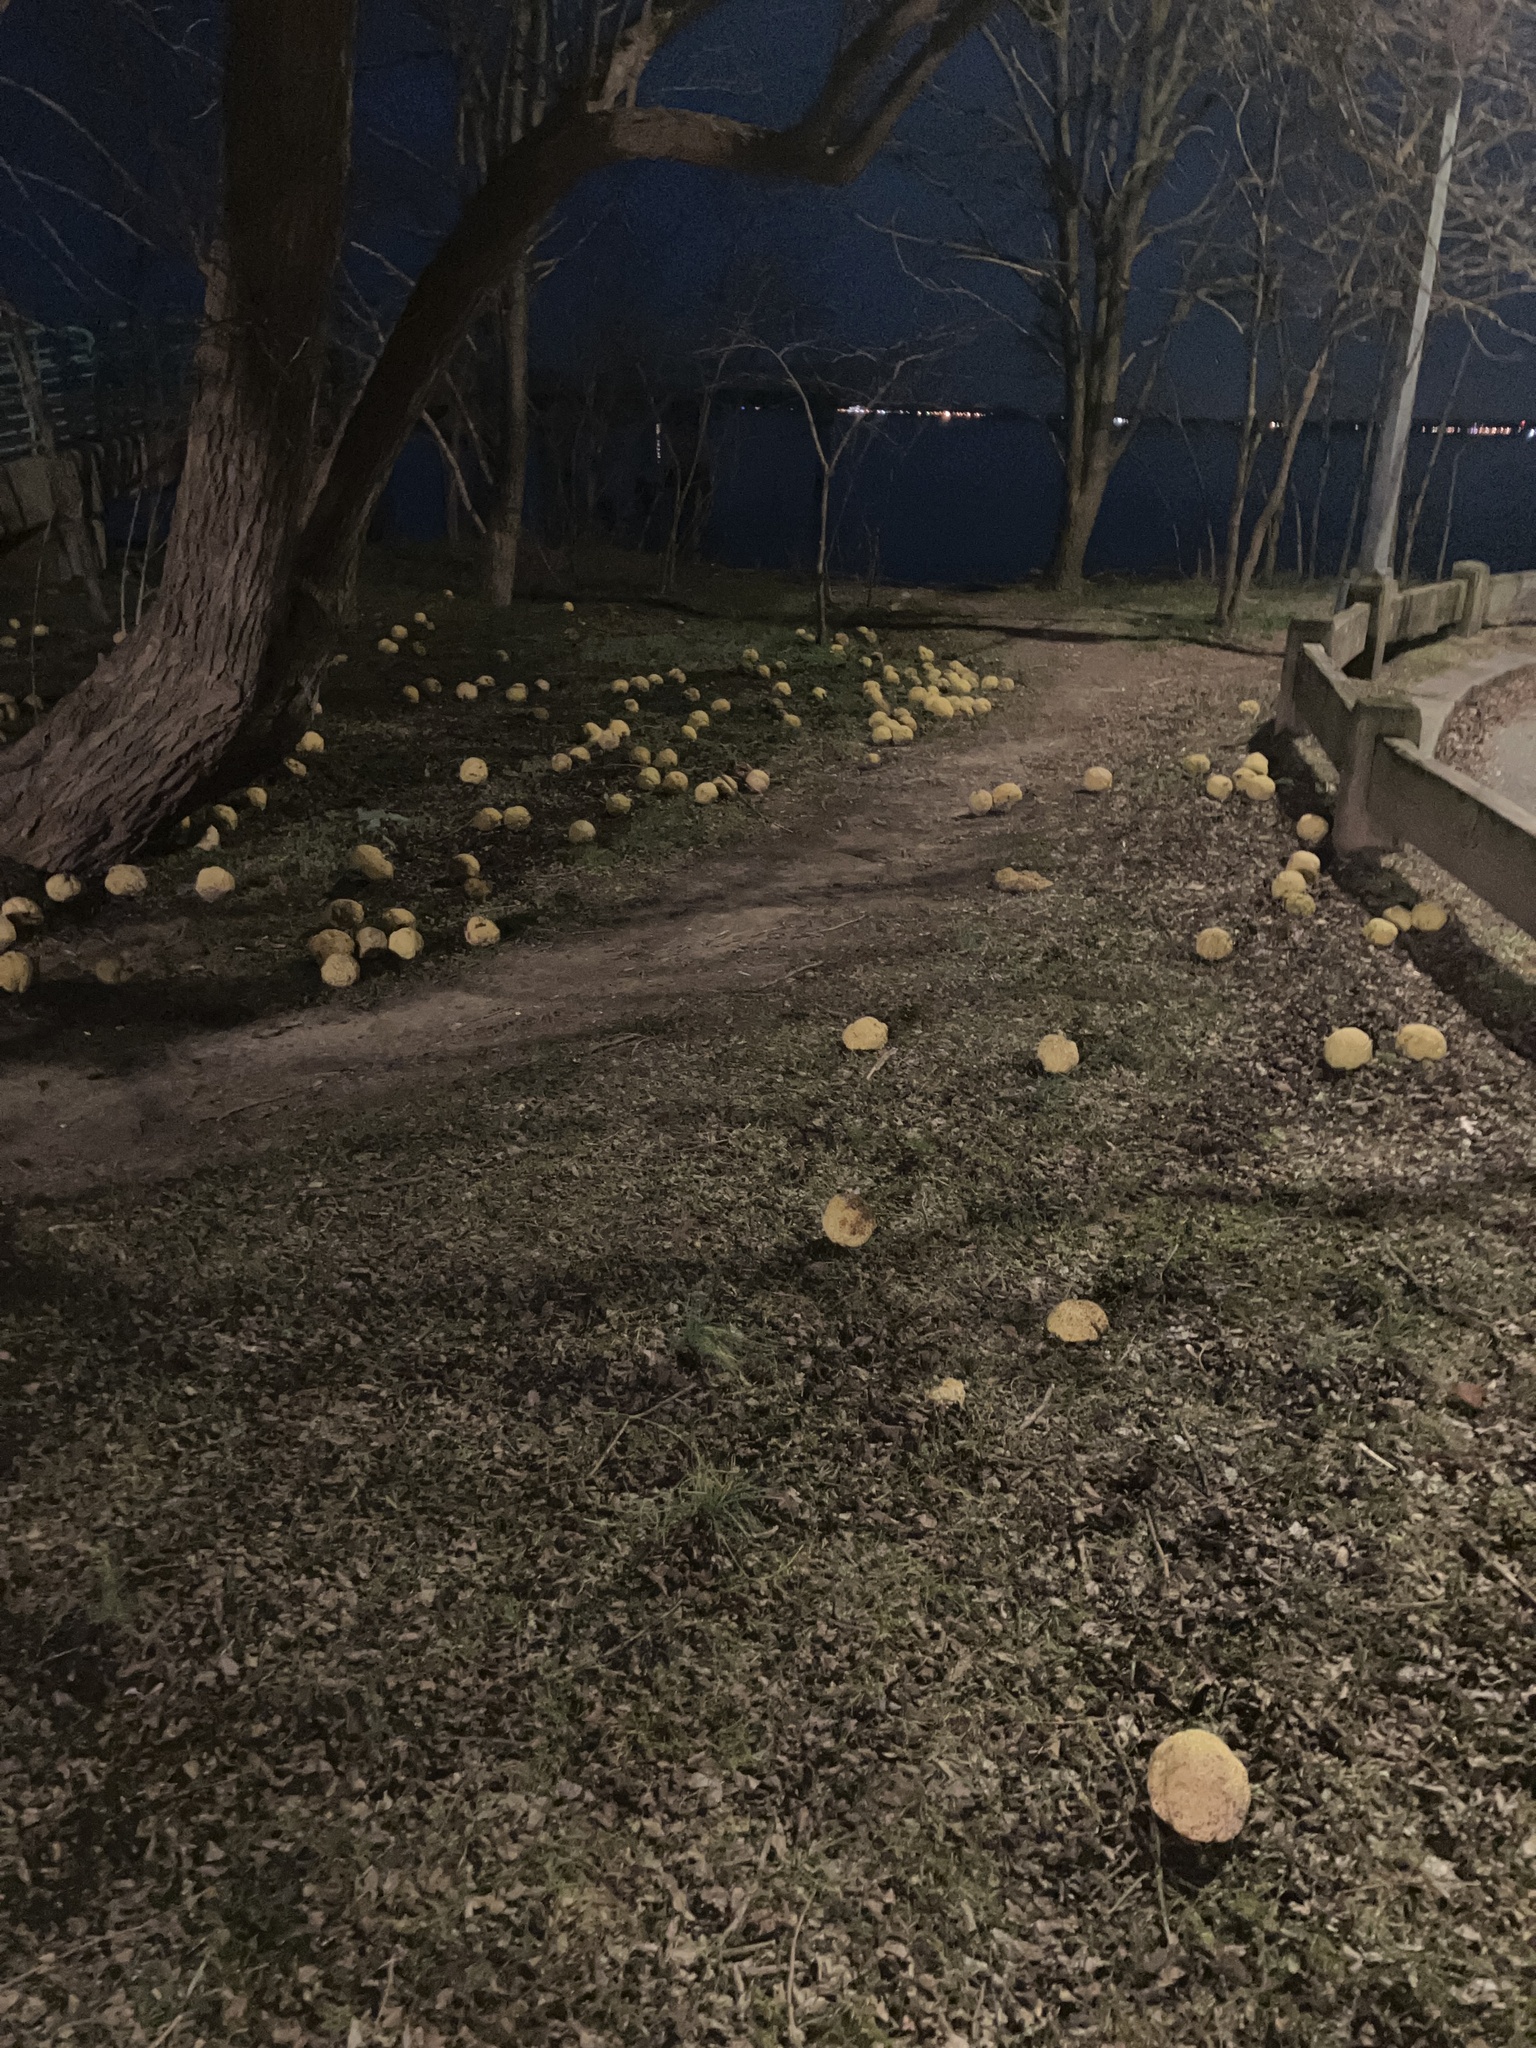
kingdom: Plantae
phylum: Tracheophyta
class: Magnoliopsida
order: Rosales
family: Moraceae
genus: Maclura
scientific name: Maclura pomifera
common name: Osage-orange
